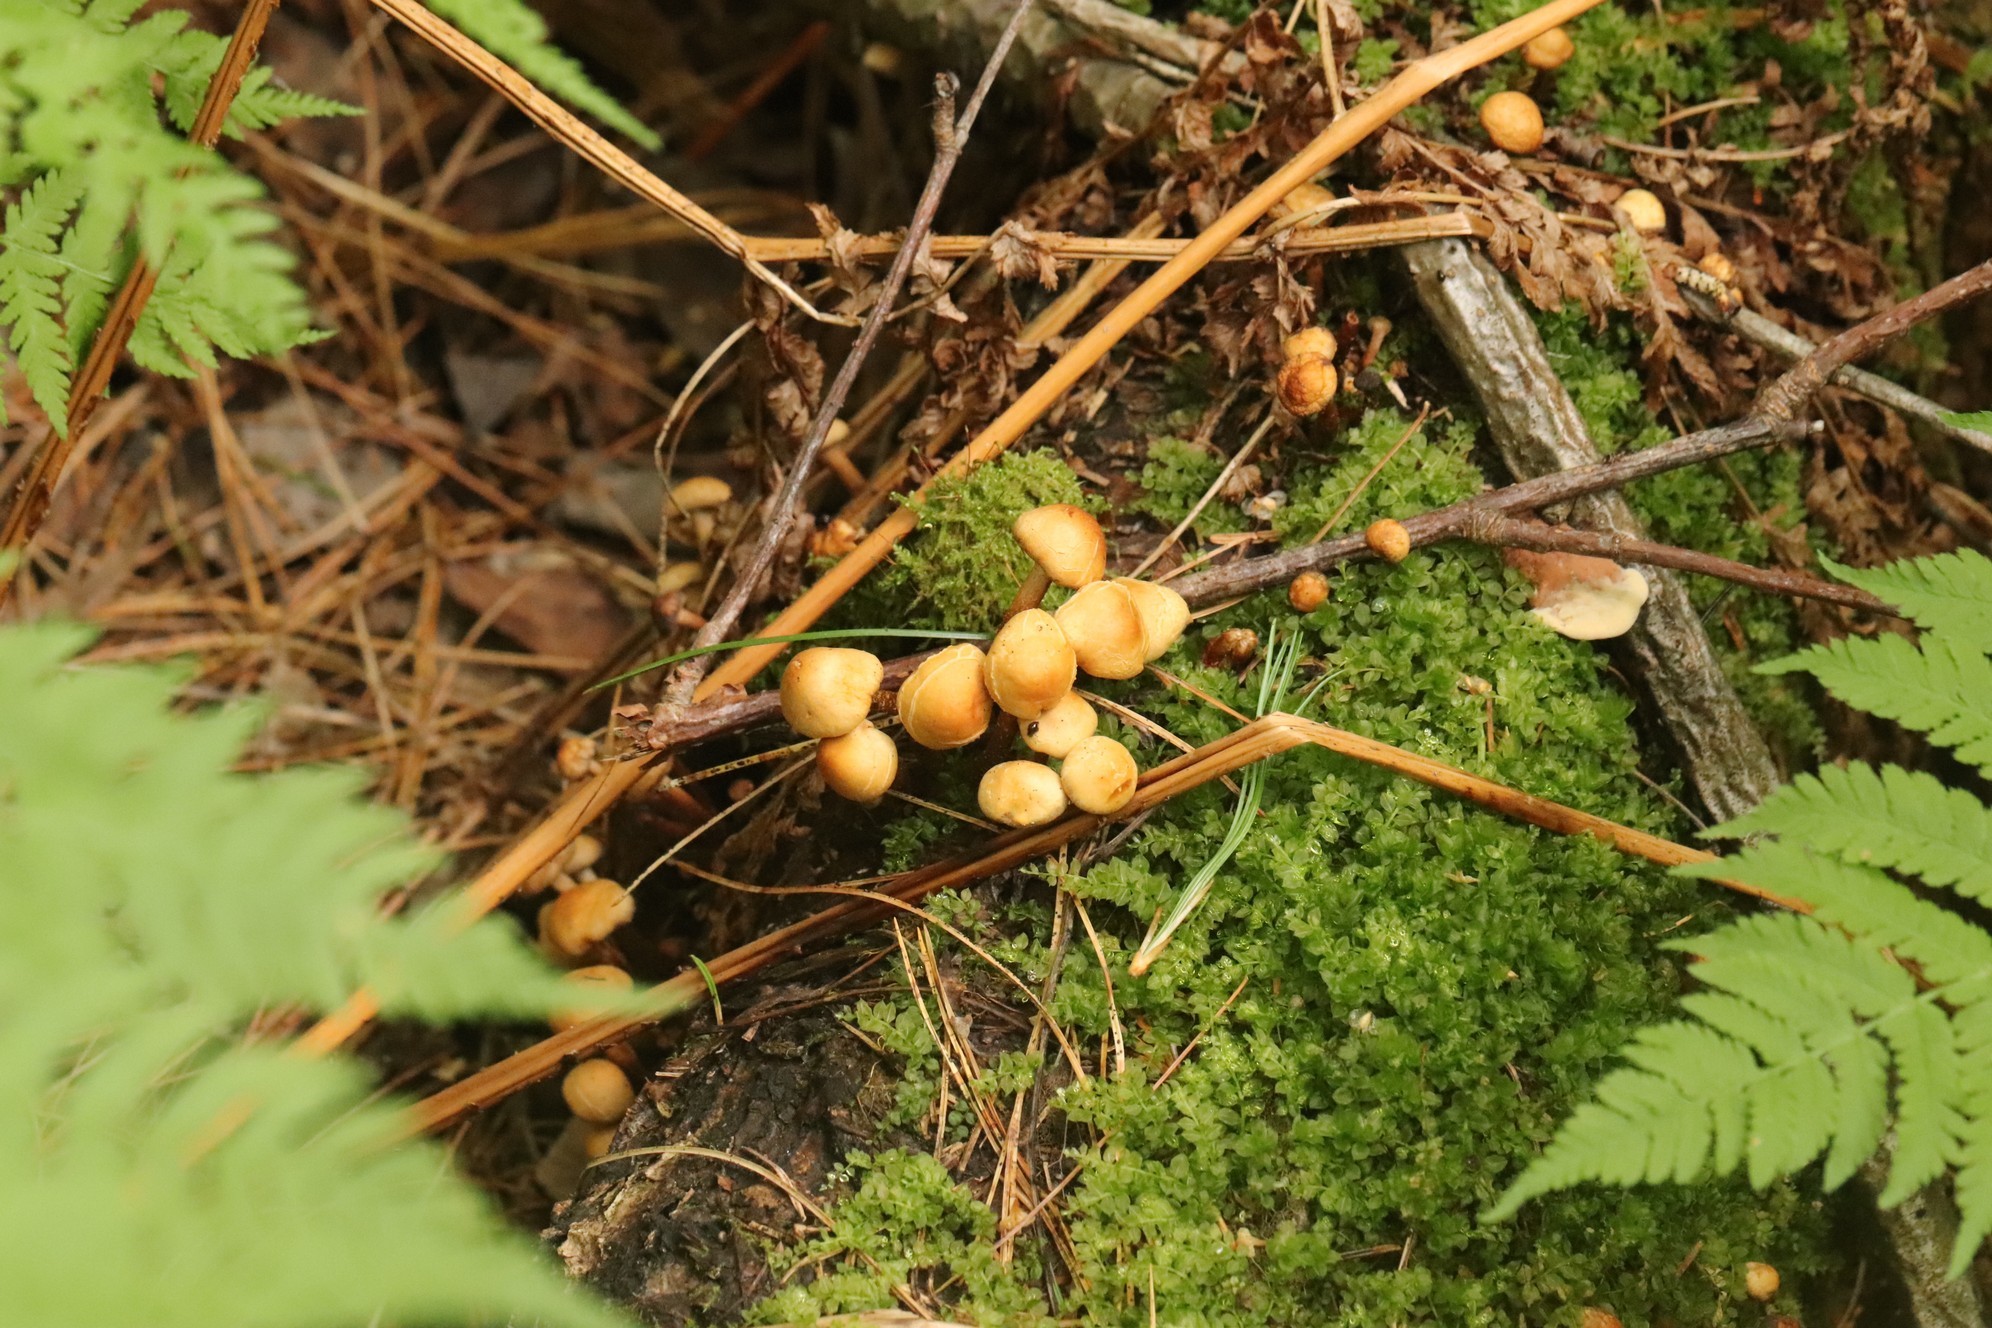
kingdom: Fungi
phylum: Basidiomycota
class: Agaricomycetes
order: Agaricales
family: Strophariaceae
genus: Kuehneromyces
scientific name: Kuehneromyces mutabilis
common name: Sheathed woodtuft
